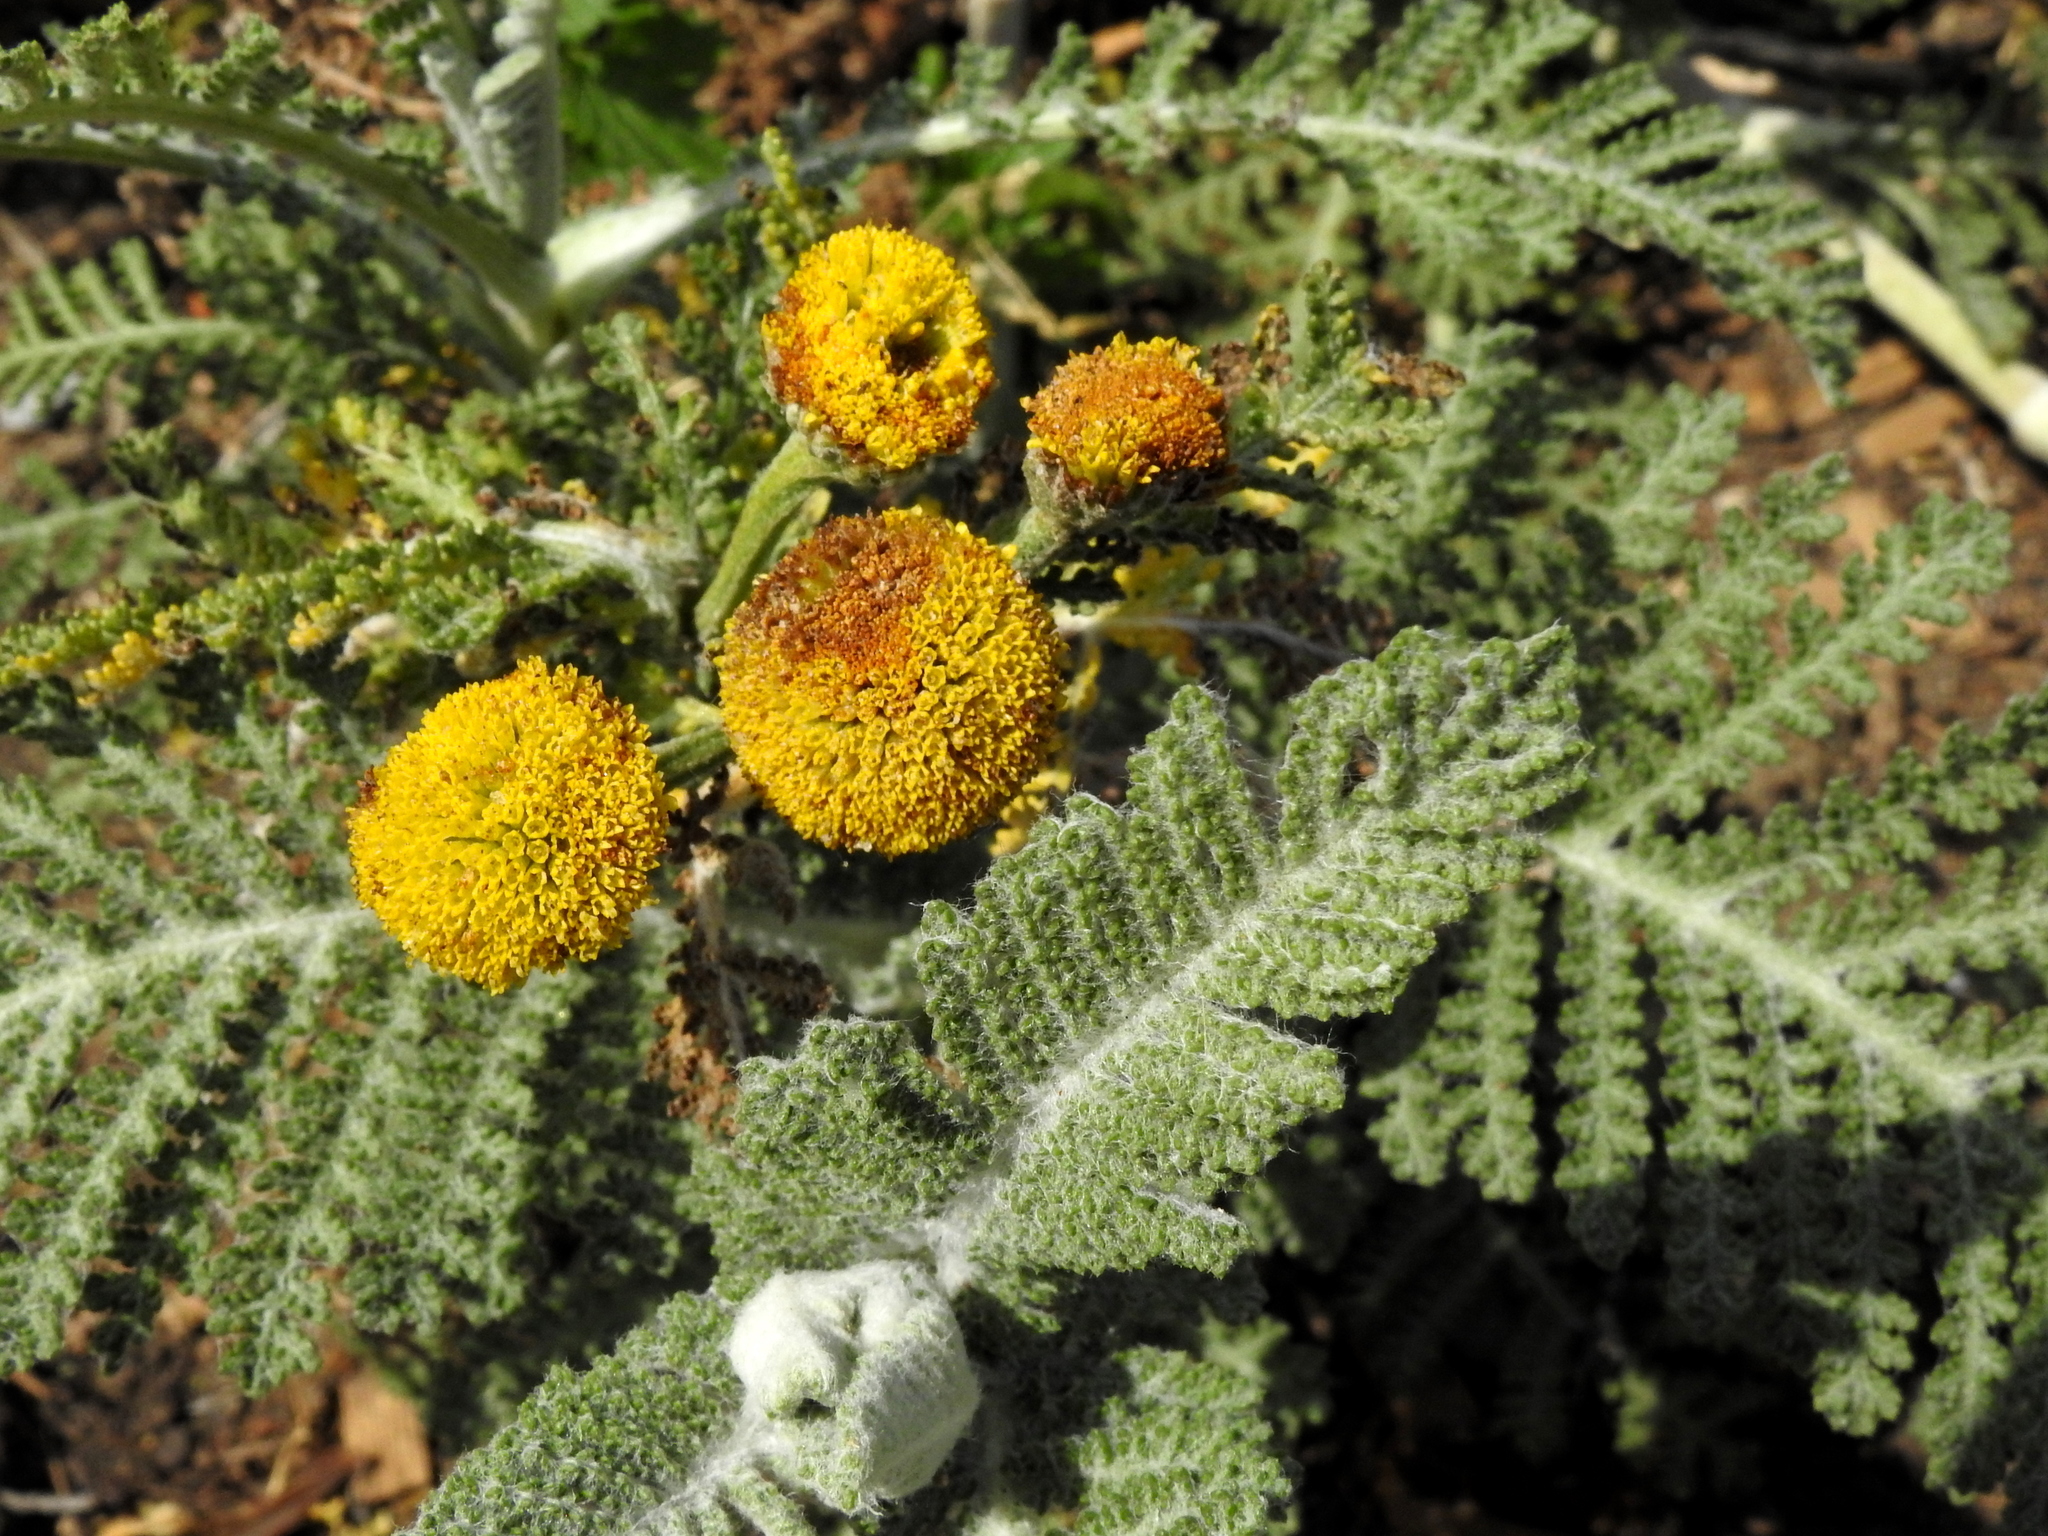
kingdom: Plantae
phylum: Tracheophyta
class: Magnoliopsida
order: Asterales
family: Asteraceae
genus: Tanacetum
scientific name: Tanacetum bipinnatum
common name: Dwarf tansy
